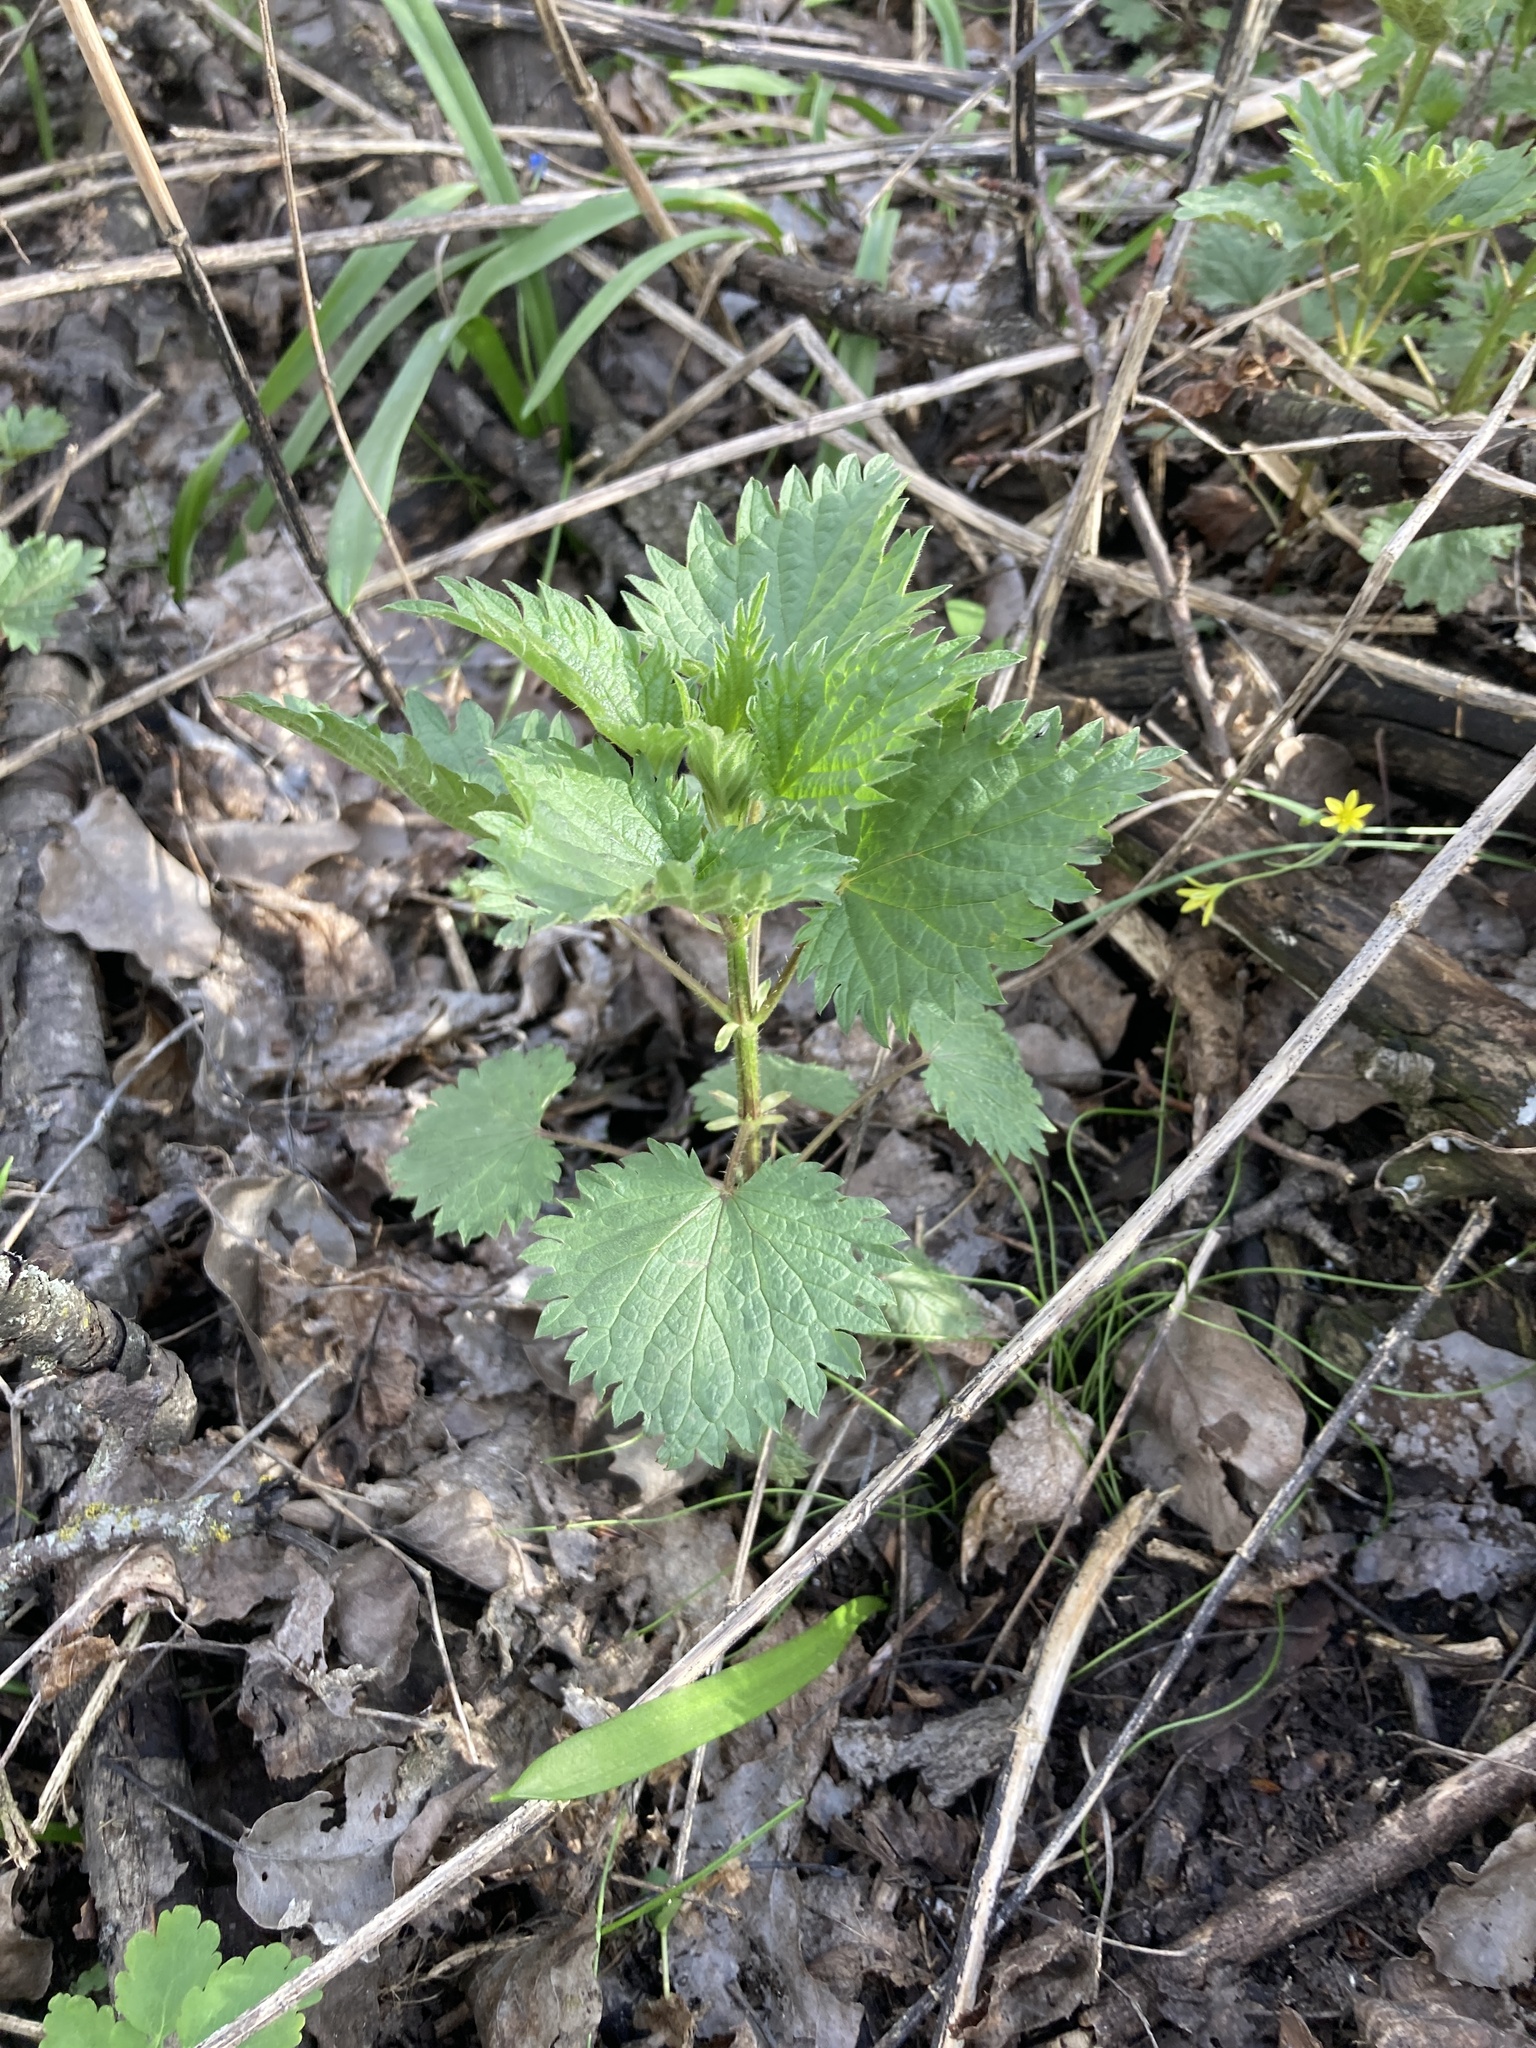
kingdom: Plantae
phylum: Tracheophyta
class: Magnoliopsida
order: Rosales
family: Urticaceae
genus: Urtica
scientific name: Urtica dioica
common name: Common nettle
